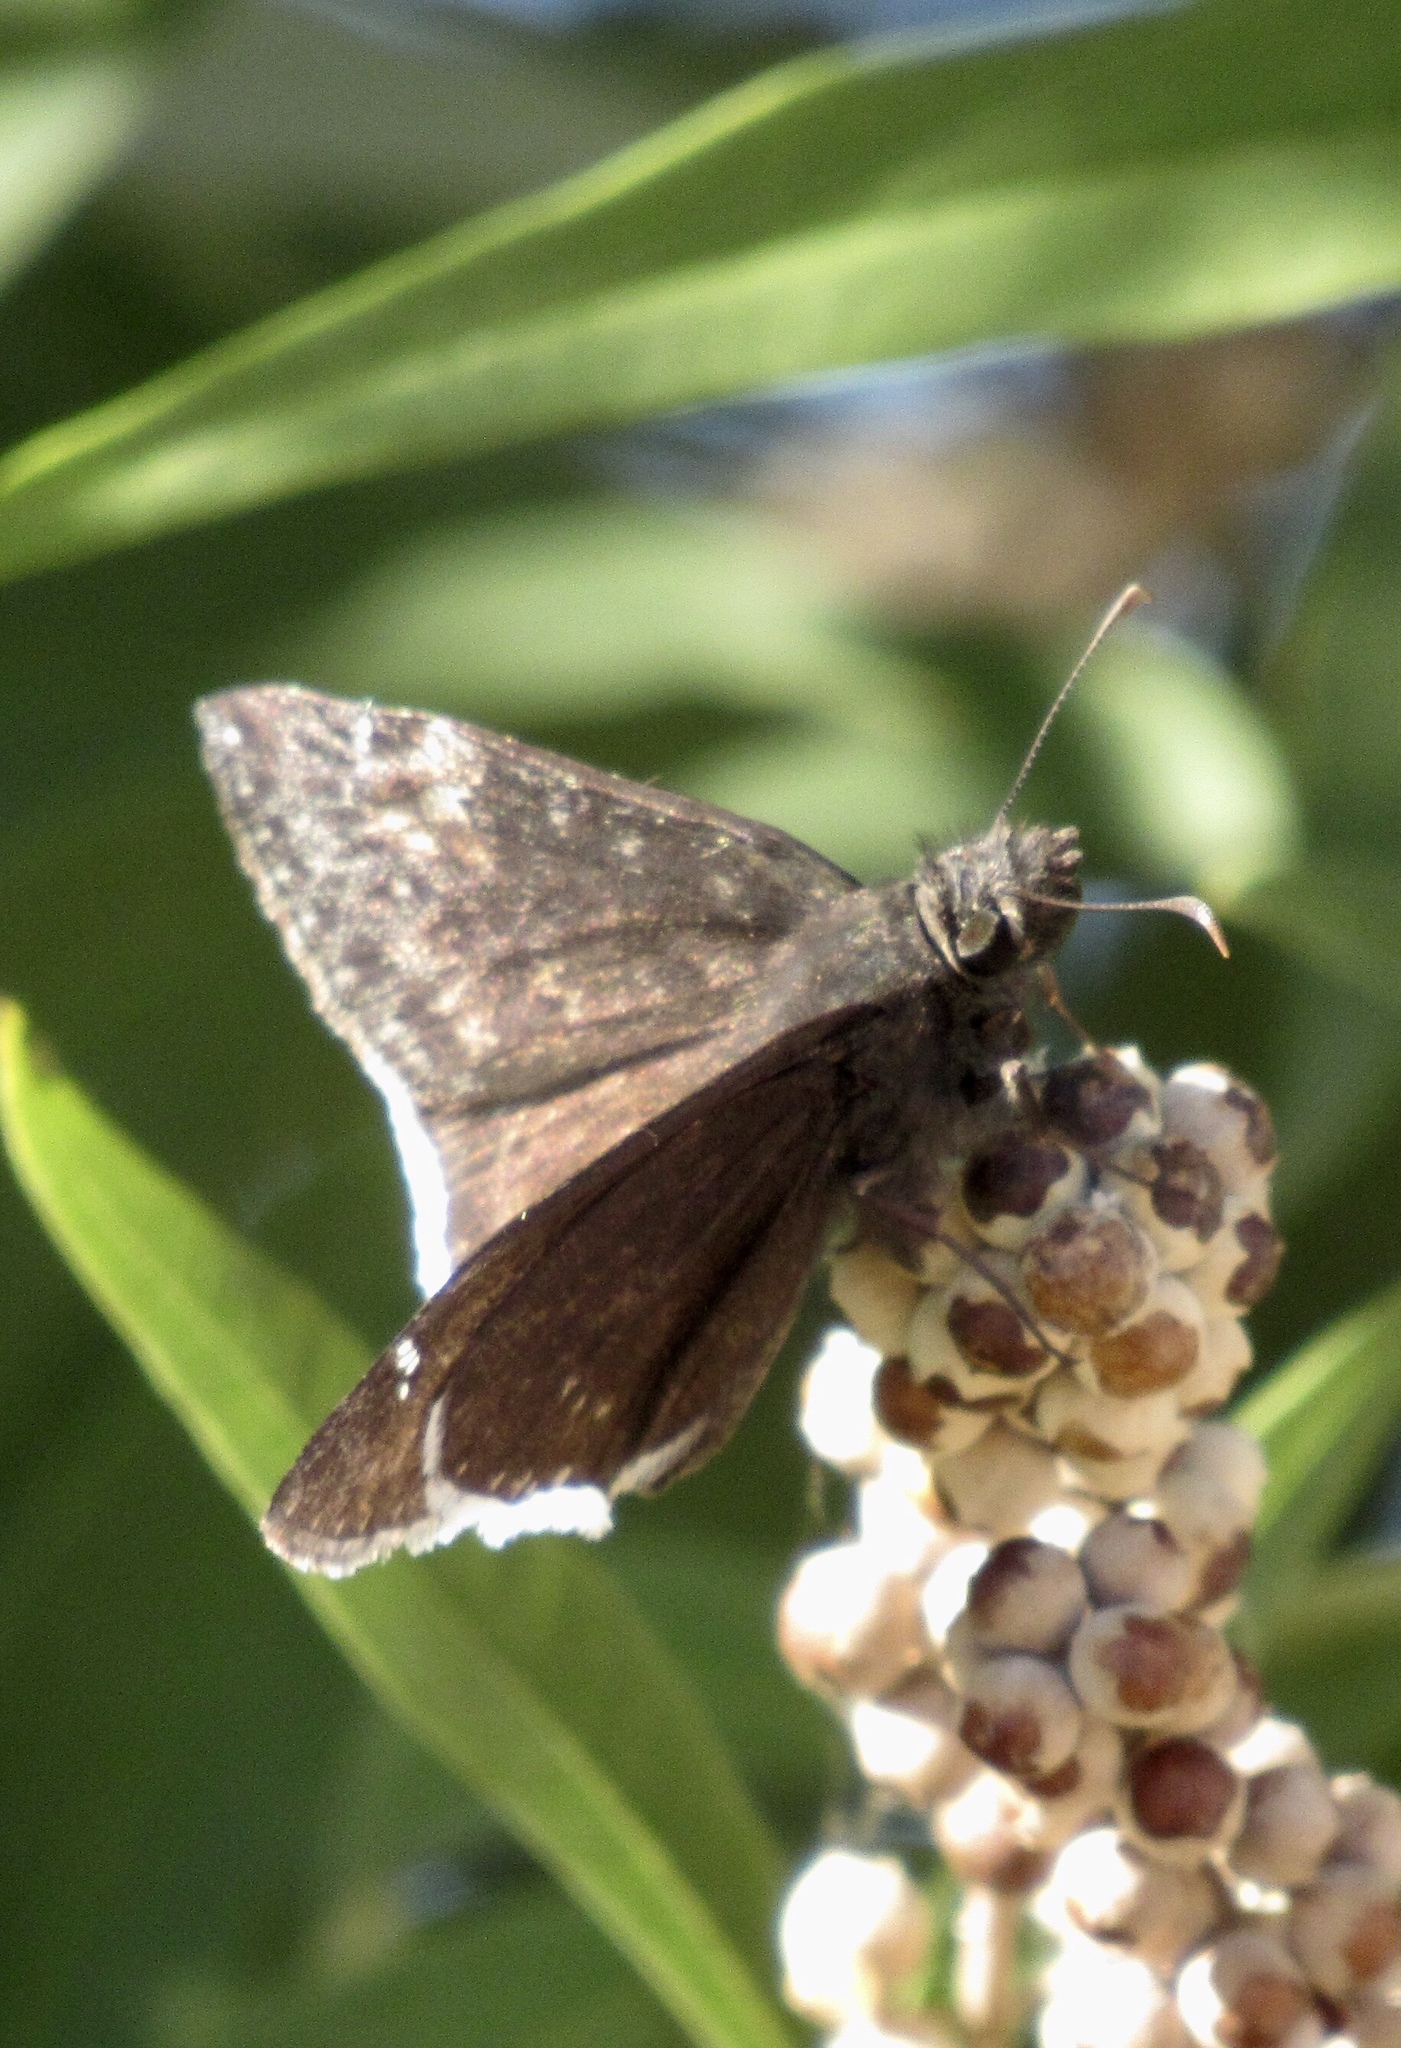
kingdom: Animalia
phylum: Arthropoda
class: Insecta
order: Lepidoptera
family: Hesperiidae
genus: Erynnis
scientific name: Erynnis funeralis
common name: Funereal duskywing
